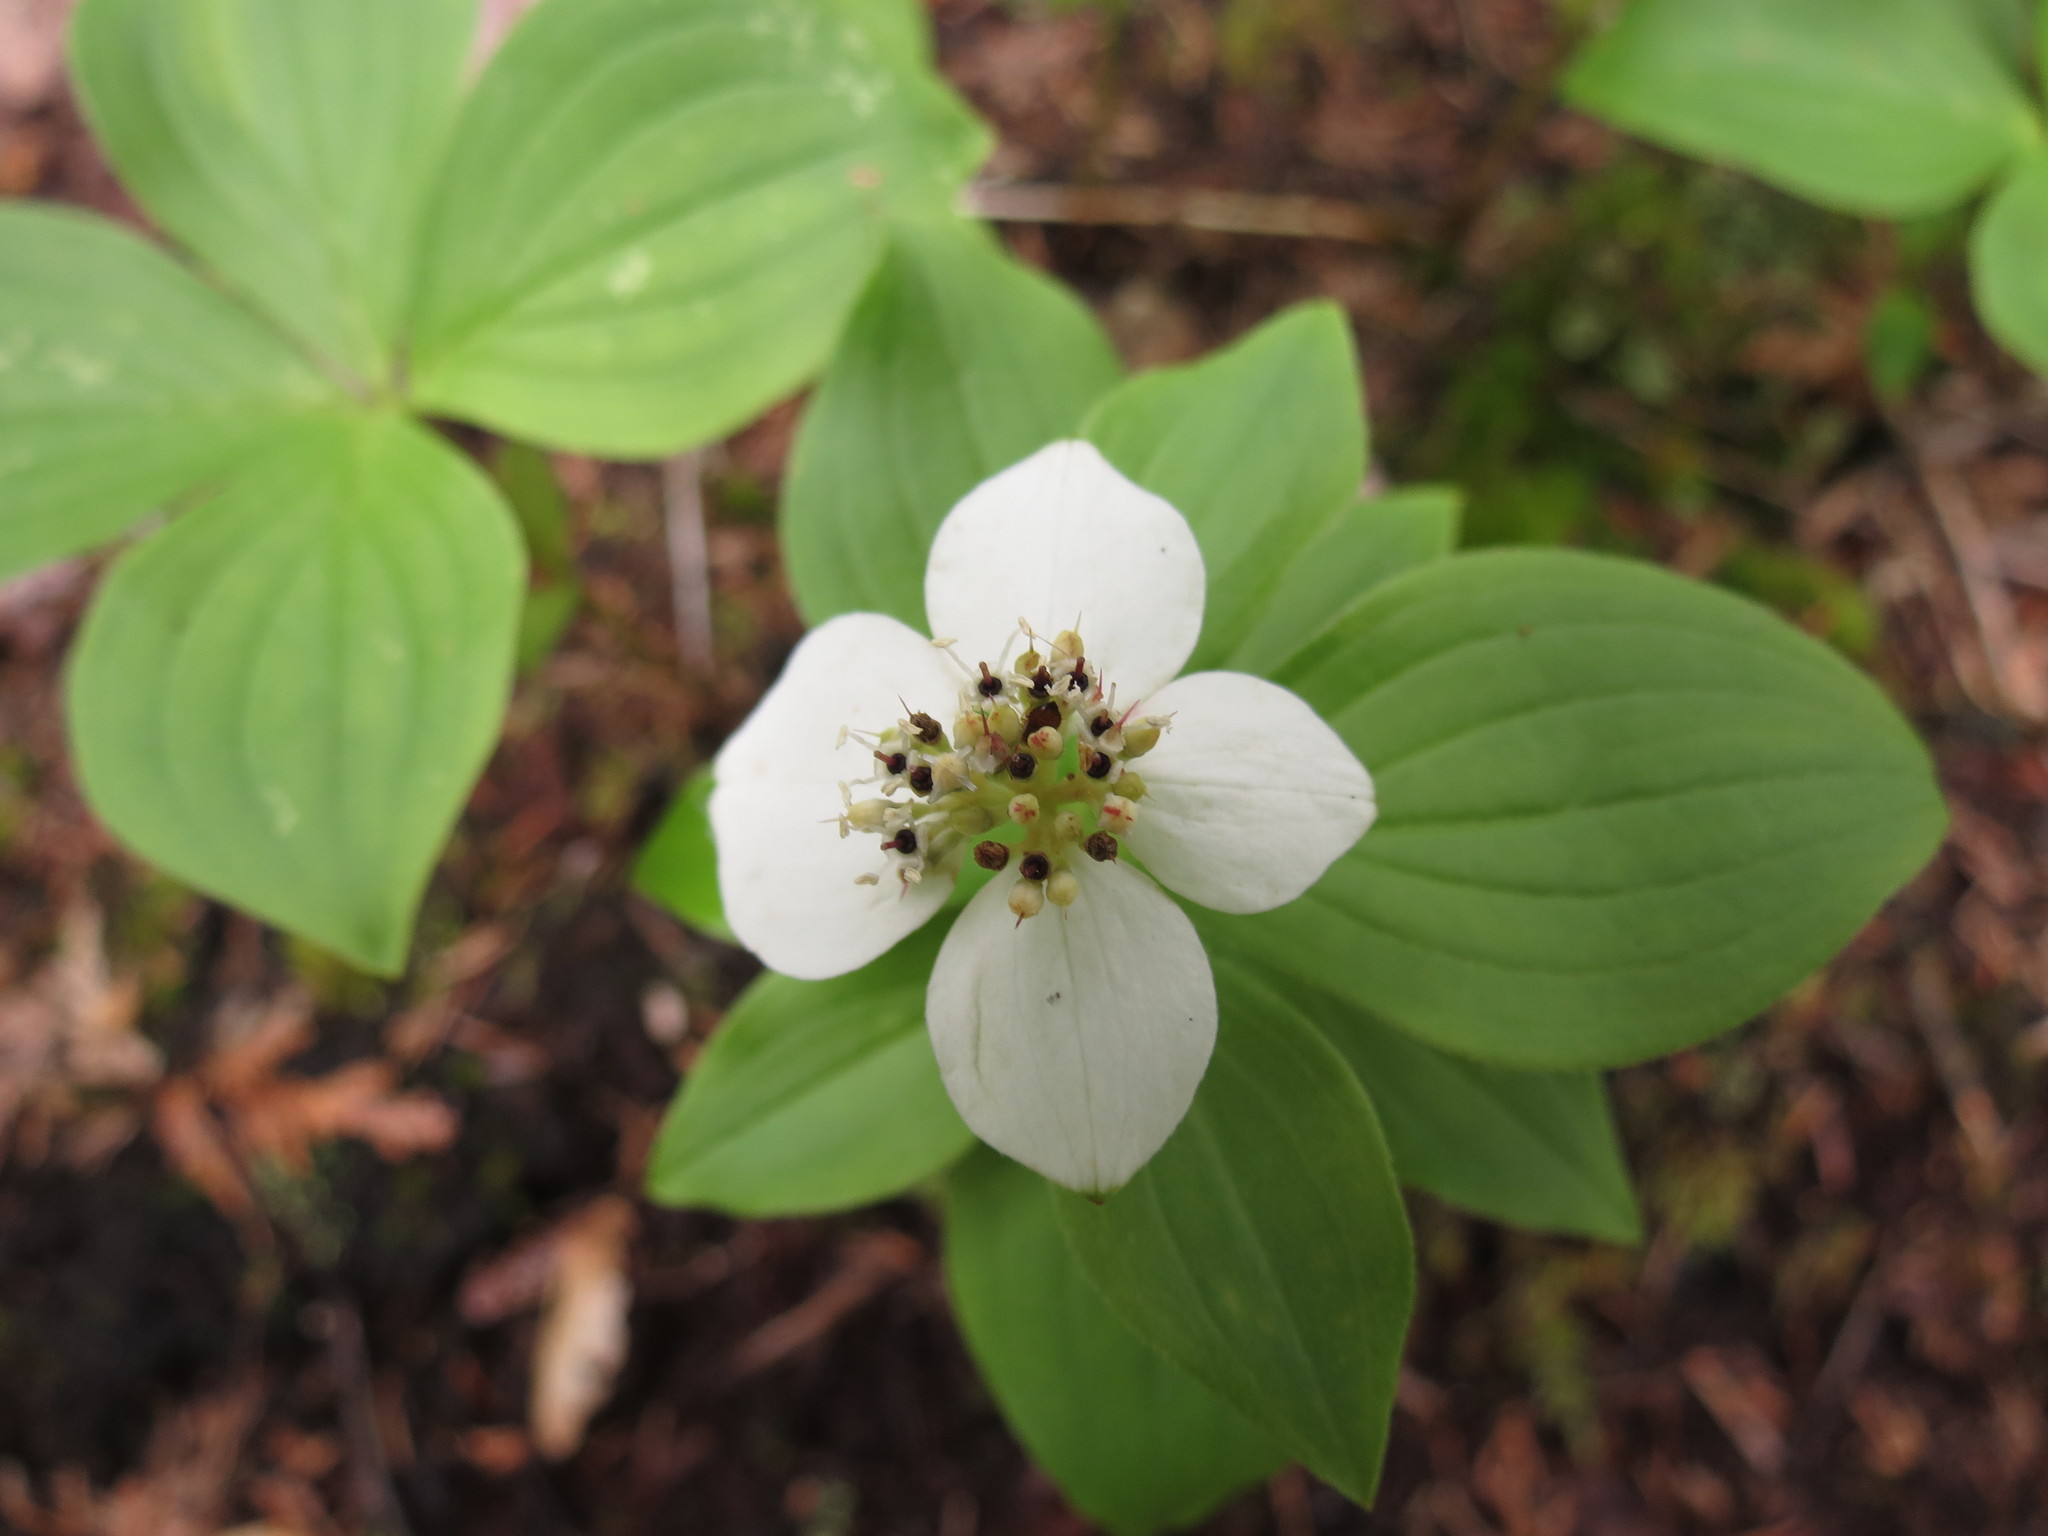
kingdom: Plantae
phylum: Tracheophyta
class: Magnoliopsida
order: Cornales
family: Cornaceae
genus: Cornus
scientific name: Cornus canadensis
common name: Creeping dogwood
